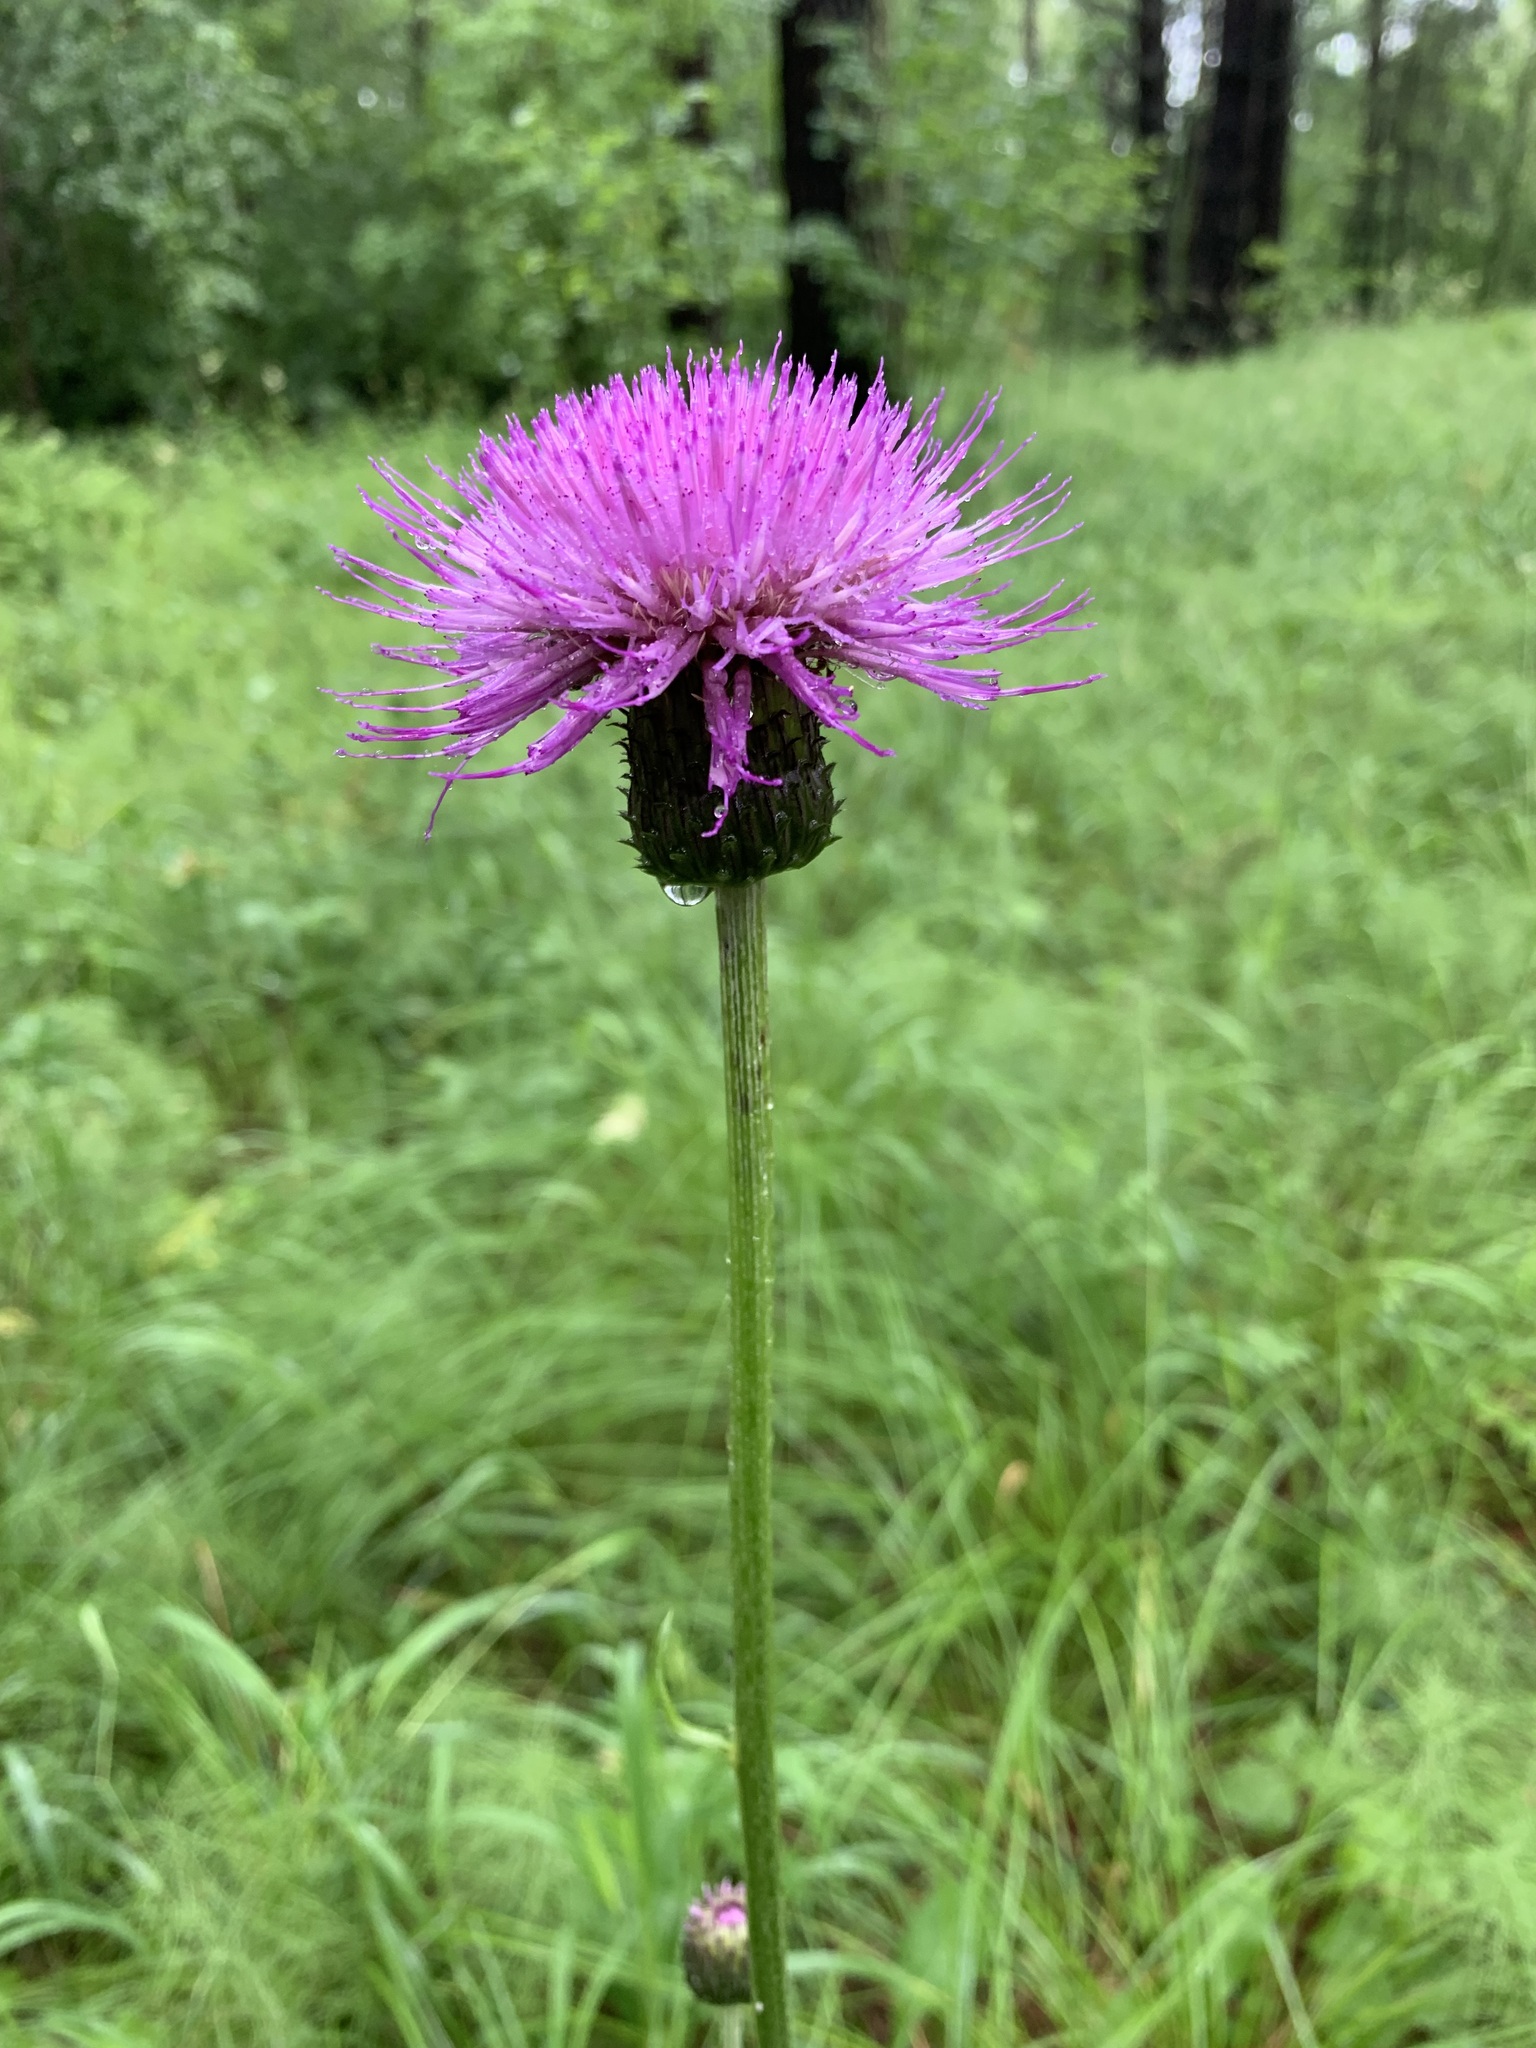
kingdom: Plantae
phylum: Tracheophyta
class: Magnoliopsida
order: Asterales
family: Asteraceae
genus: Cirsium
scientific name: Cirsium heterophyllum
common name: Melancholy thistle
